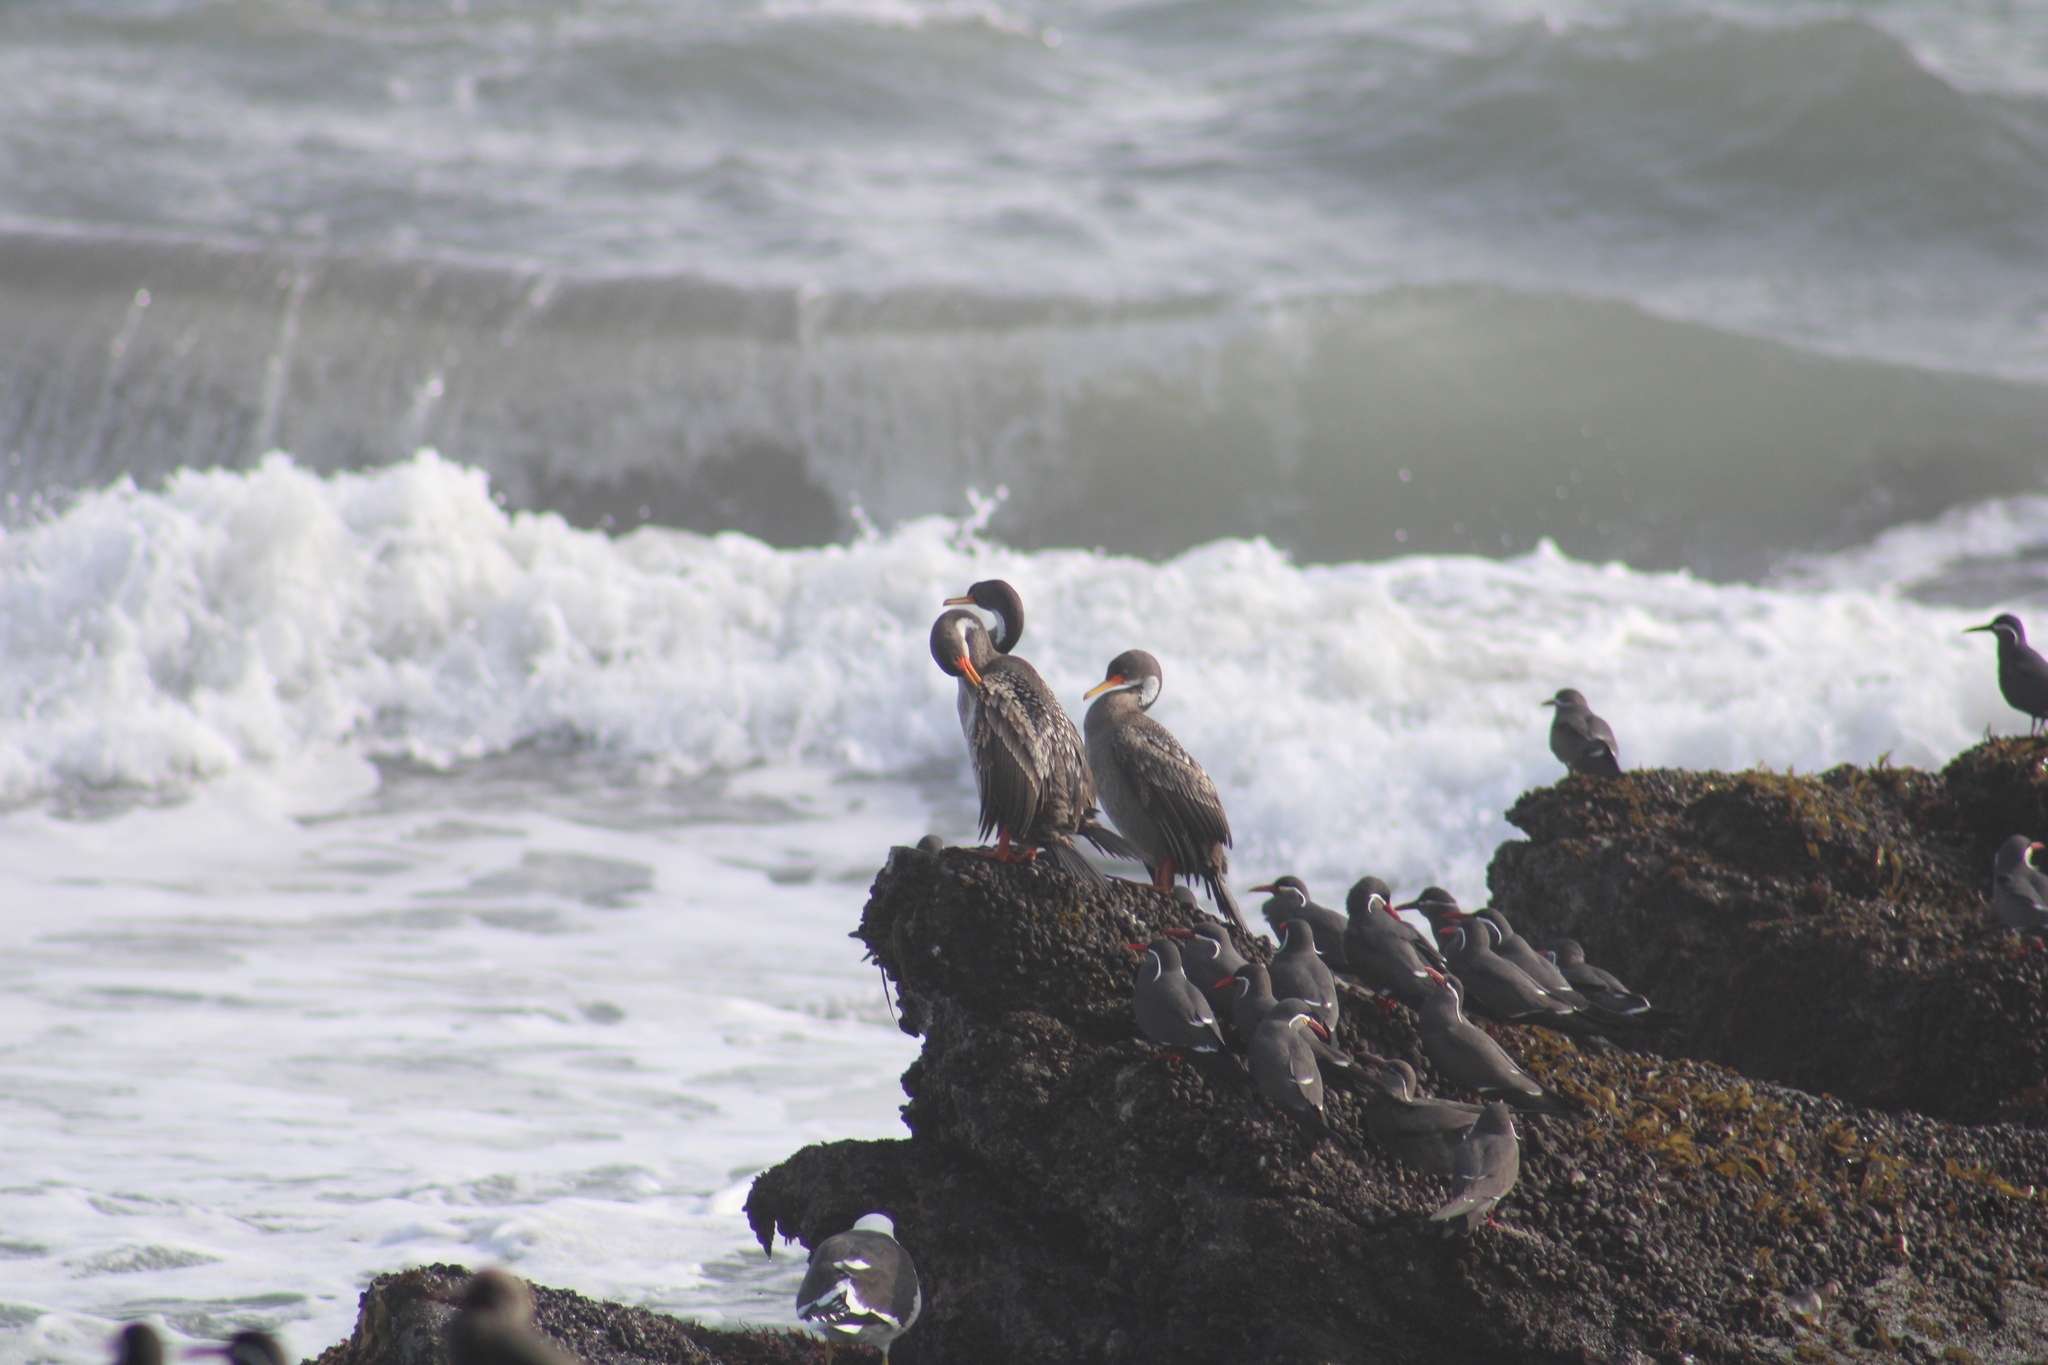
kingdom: Animalia
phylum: Chordata
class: Aves
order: Suliformes
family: Phalacrocoracidae
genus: Phalacrocorax
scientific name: Phalacrocorax gaimardi
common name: Red-legged cormorant
